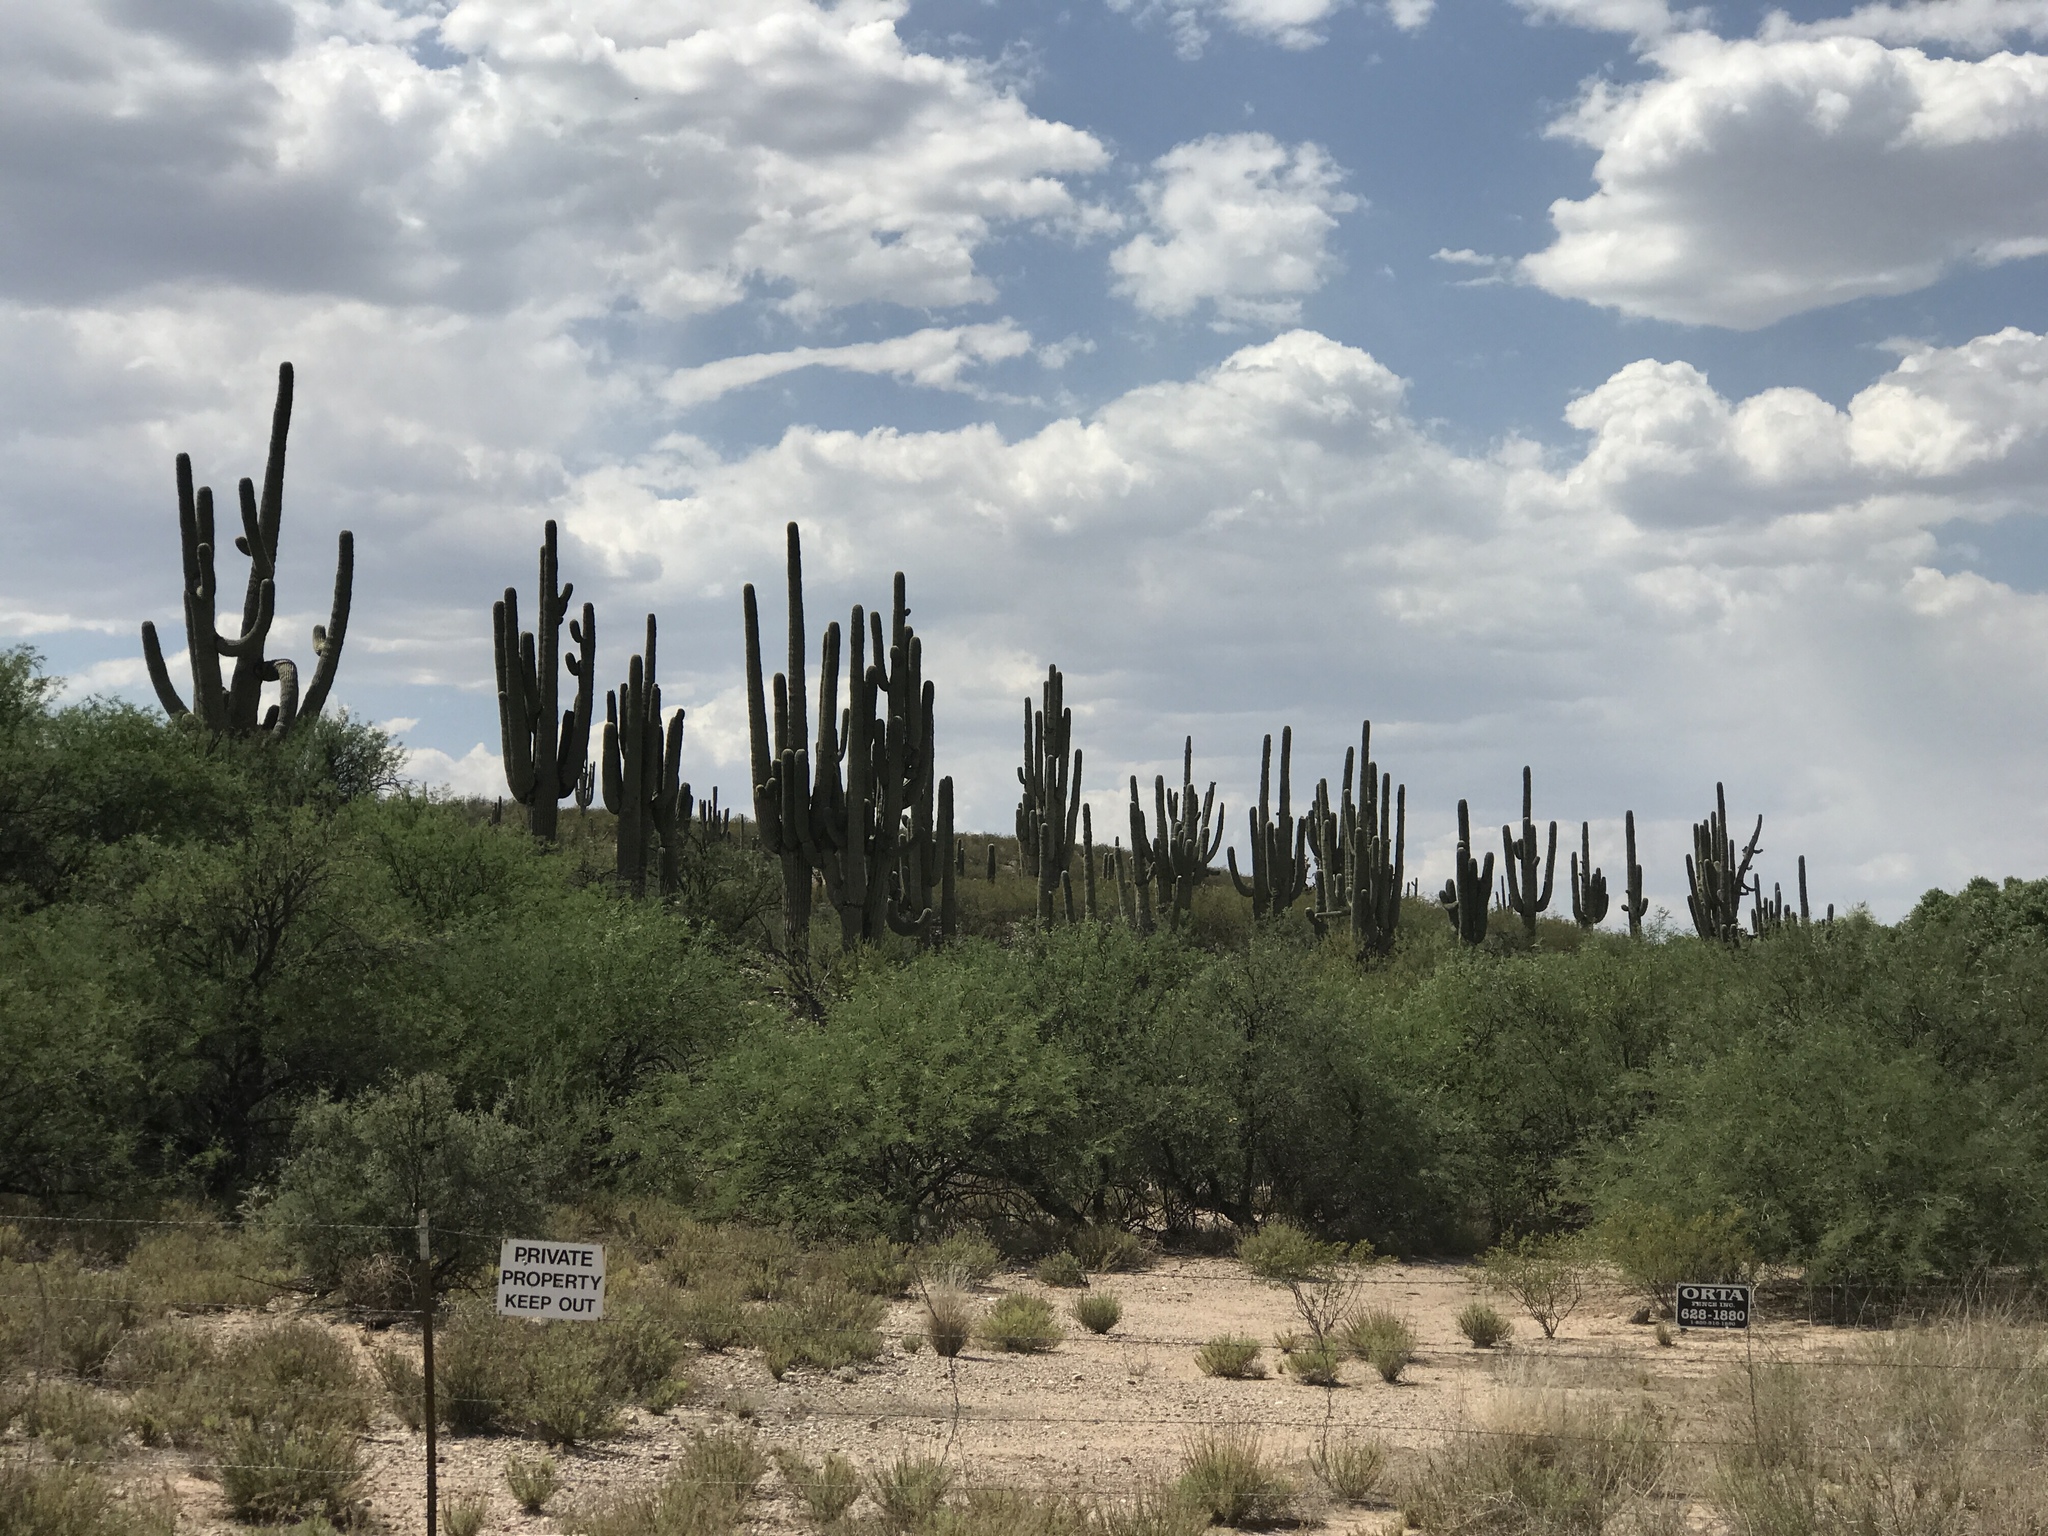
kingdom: Plantae
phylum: Tracheophyta
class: Magnoliopsida
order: Caryophyllales
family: Cactaceae
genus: Carnegiea
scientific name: Carnegiea gigantea
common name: Saguaro
